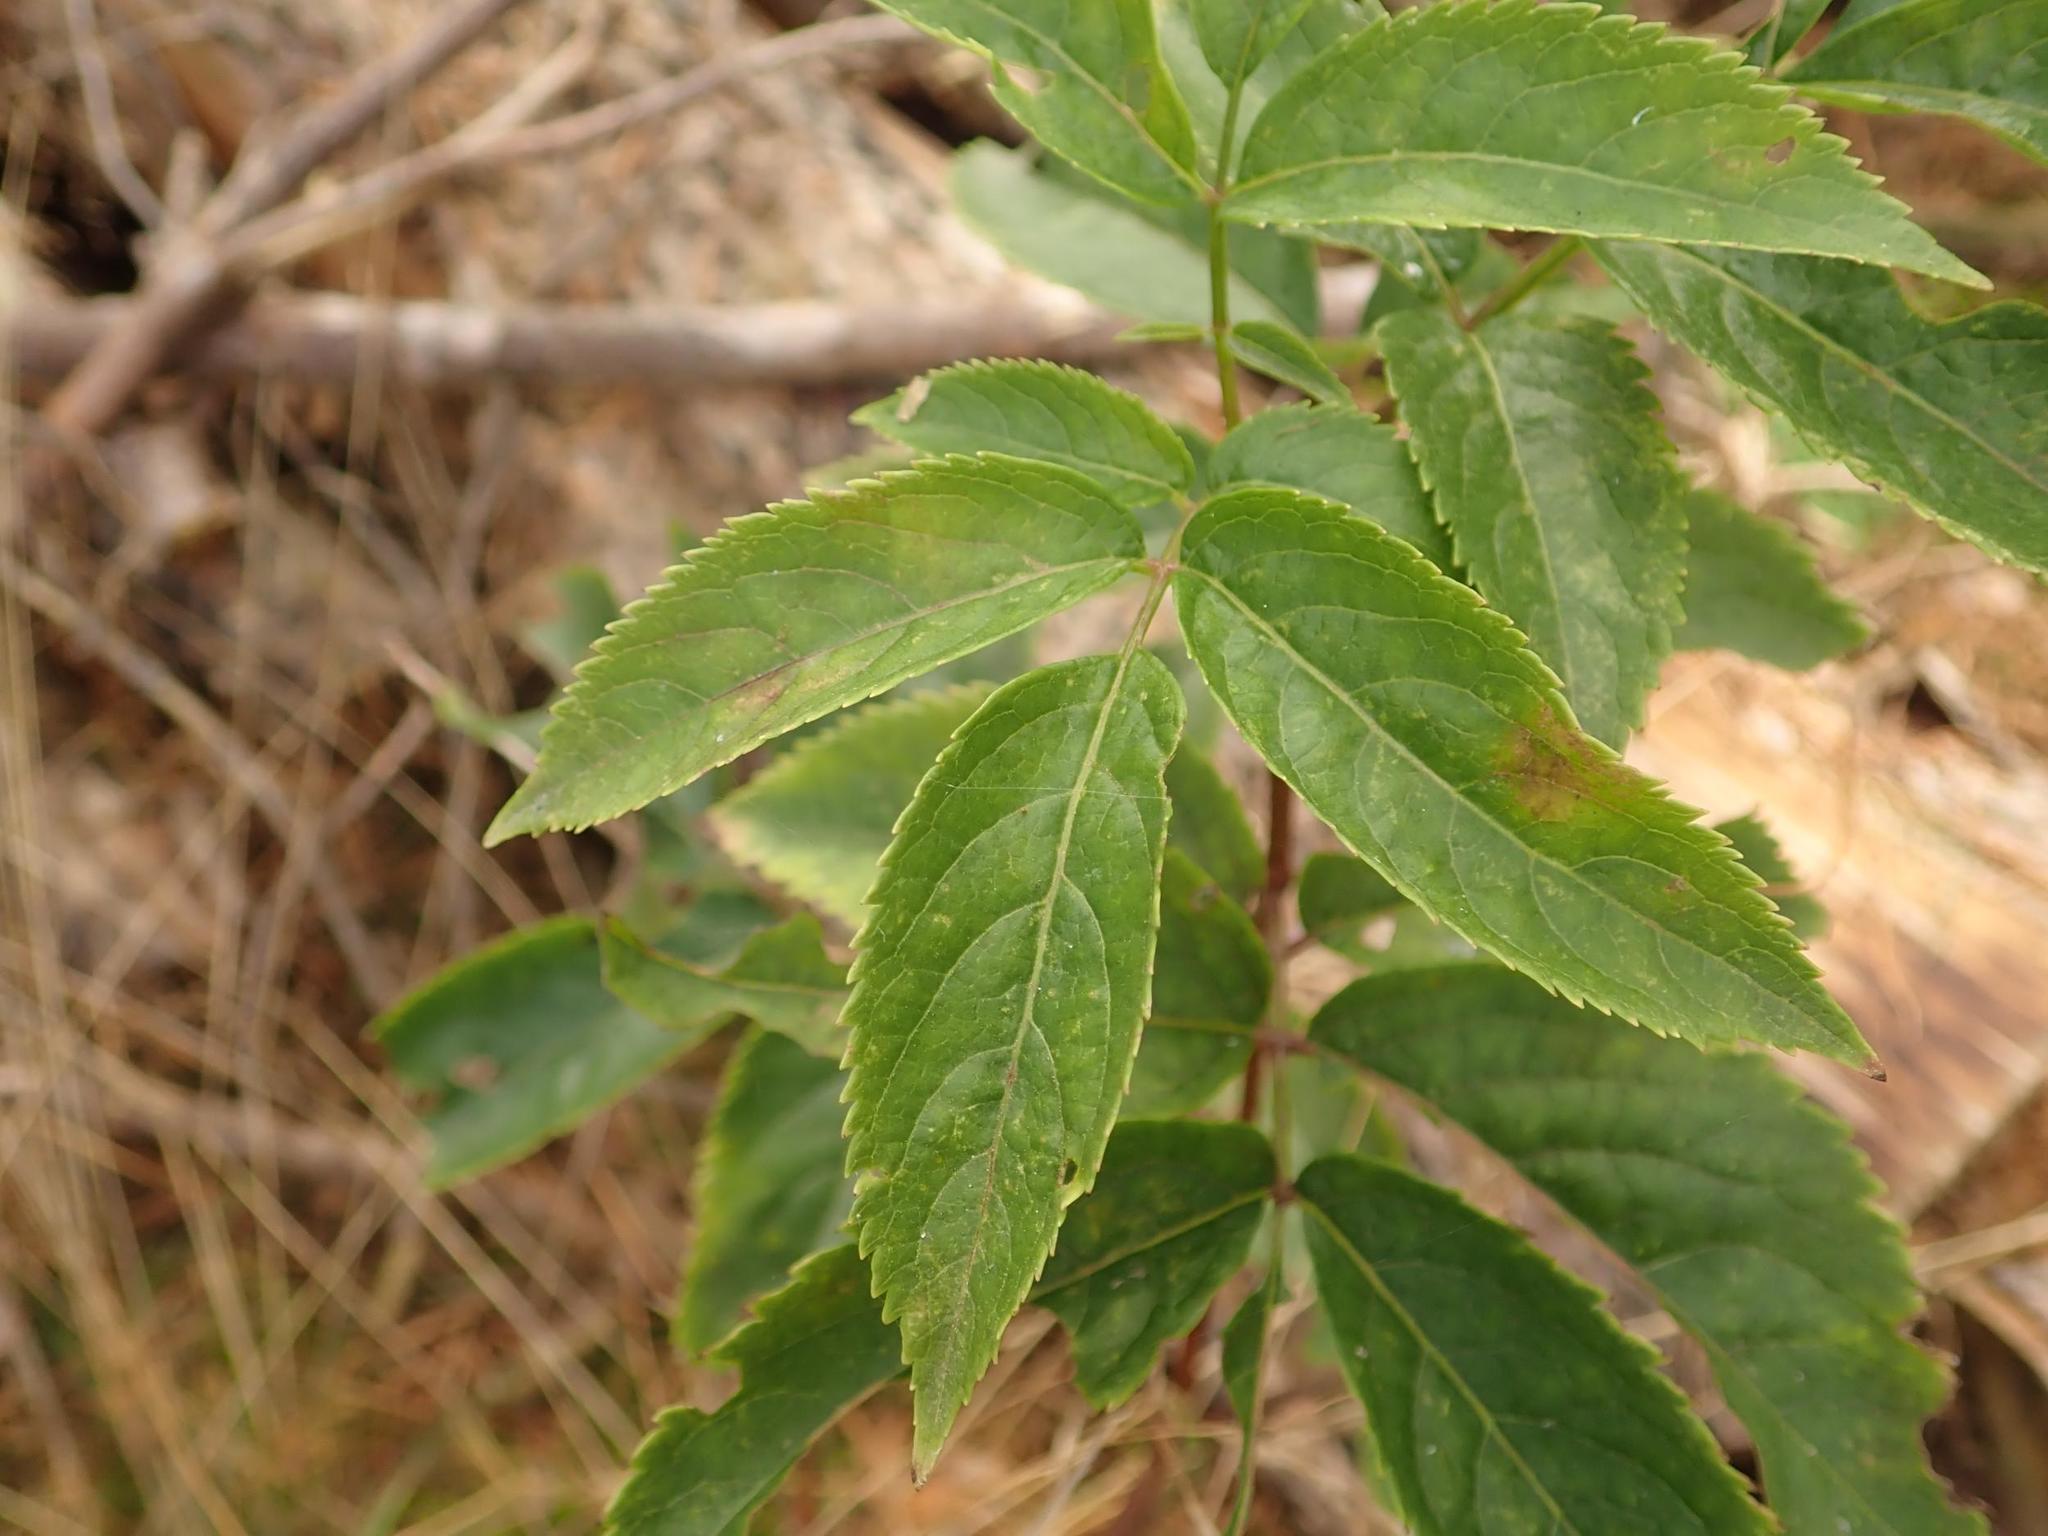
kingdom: Plantae
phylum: Tracheophyta
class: Magnoliopsida
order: Dipsacales
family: Viburnaceae
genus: Sambucus
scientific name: Sambucus nigra
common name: Elder
